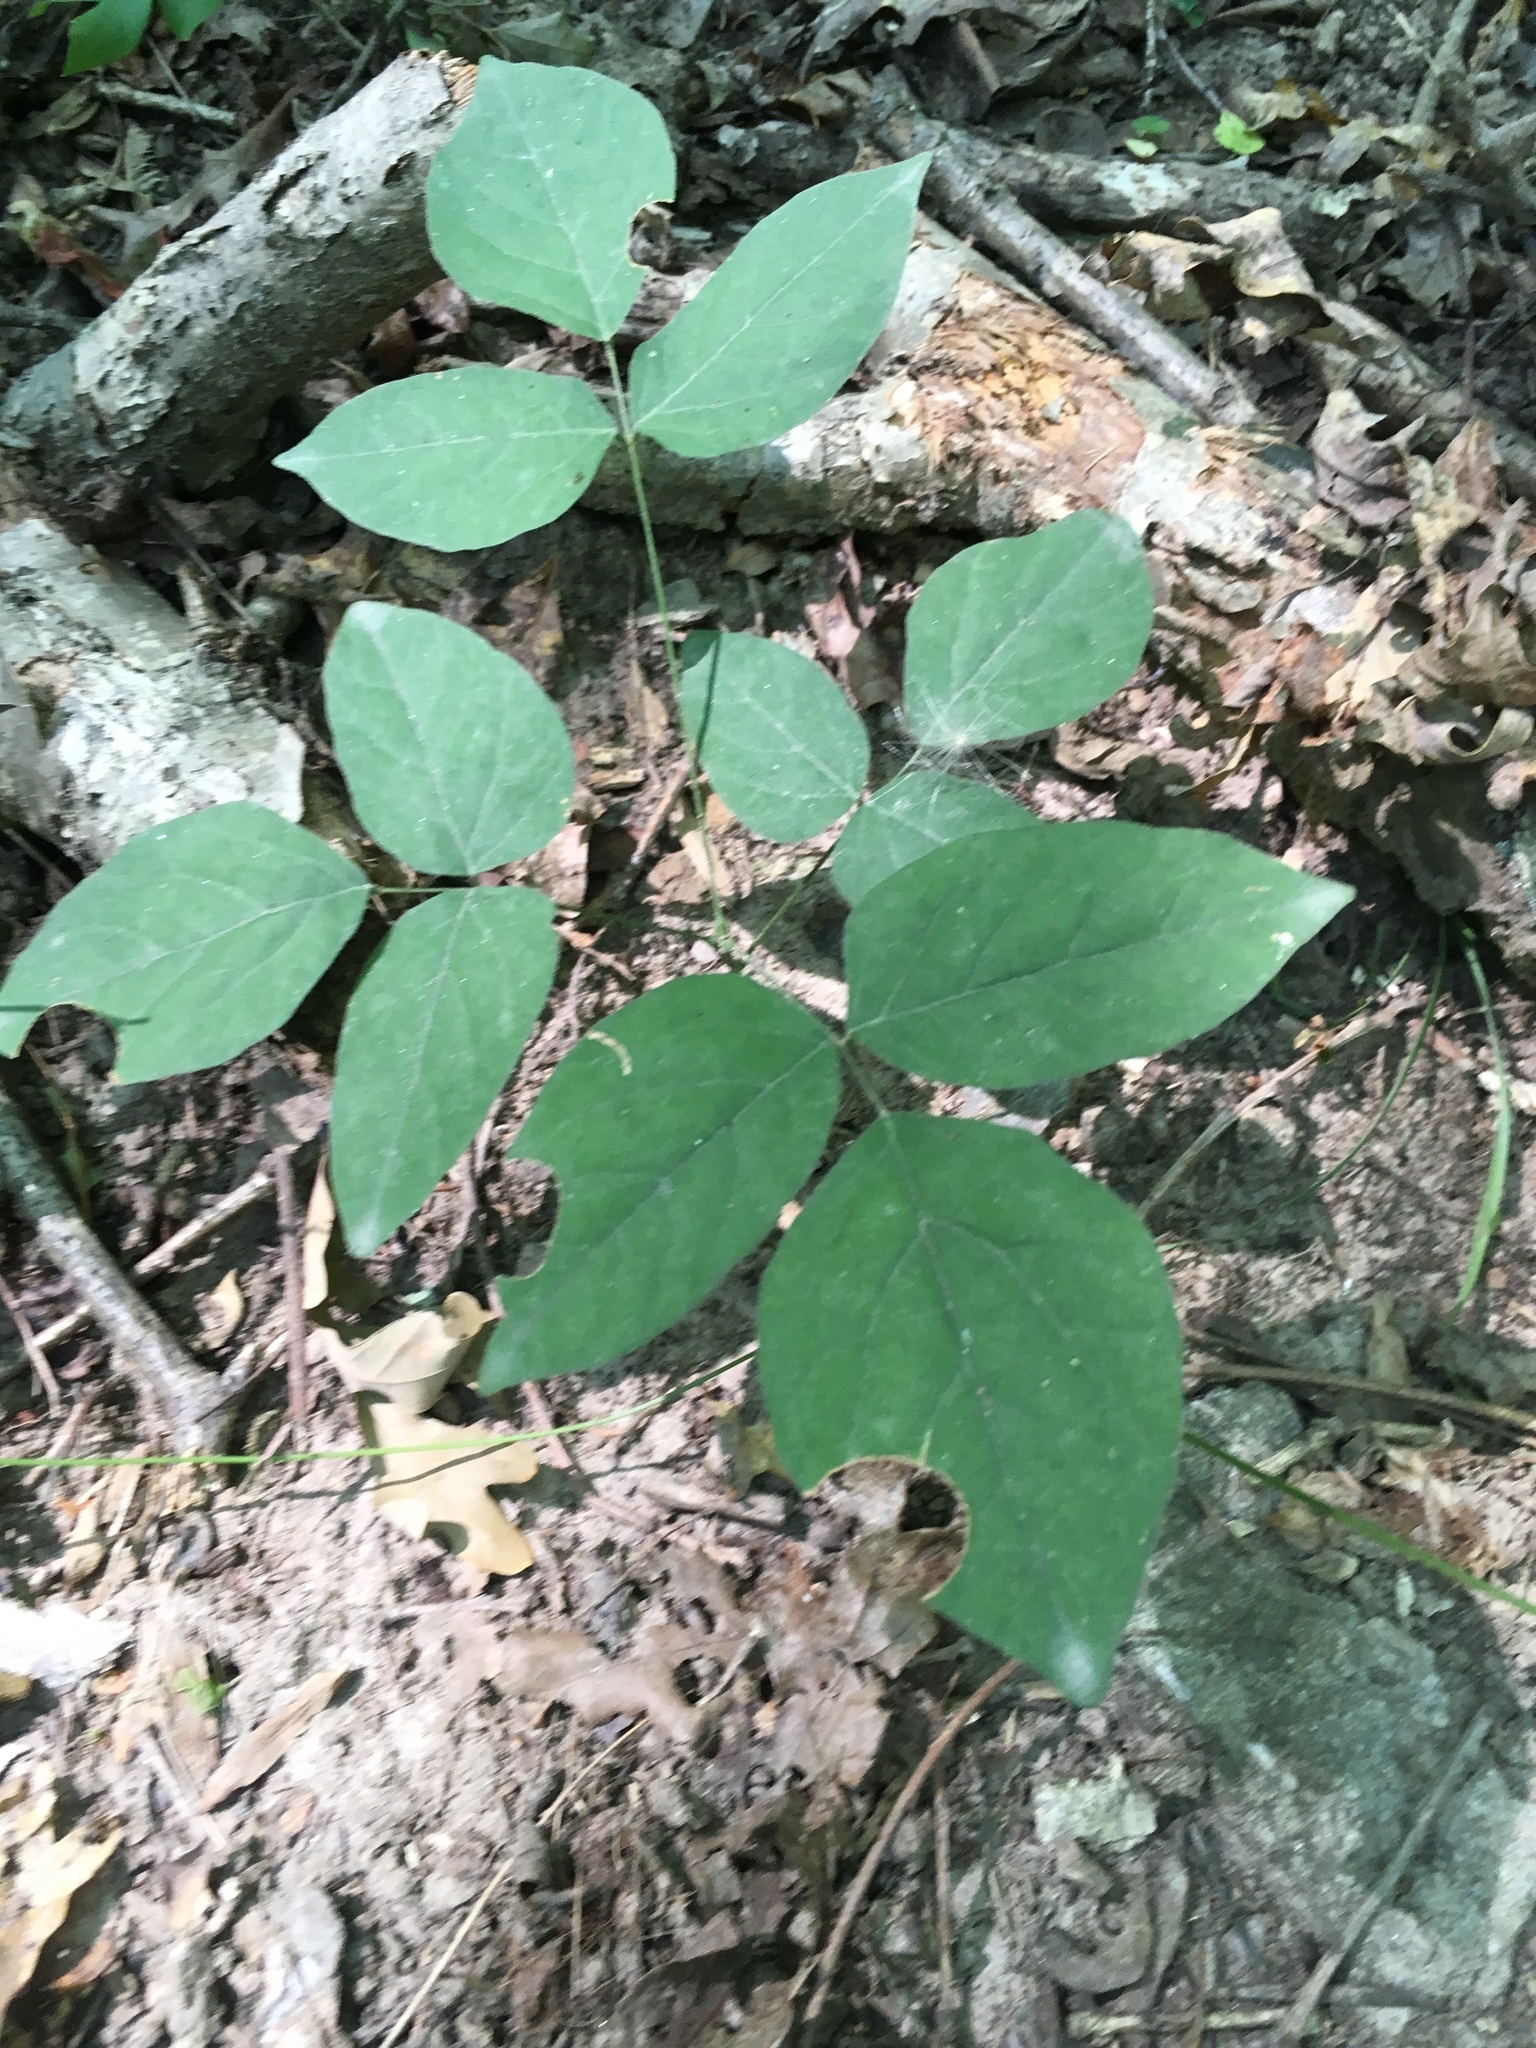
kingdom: Plantae
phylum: Tracheophyta
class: Magnoliopsida
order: Fabales
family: Fabaceae
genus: Hylodesmum
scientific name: Hylodesmum nudiflorum
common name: Bare-stemmed tick-trefoil
